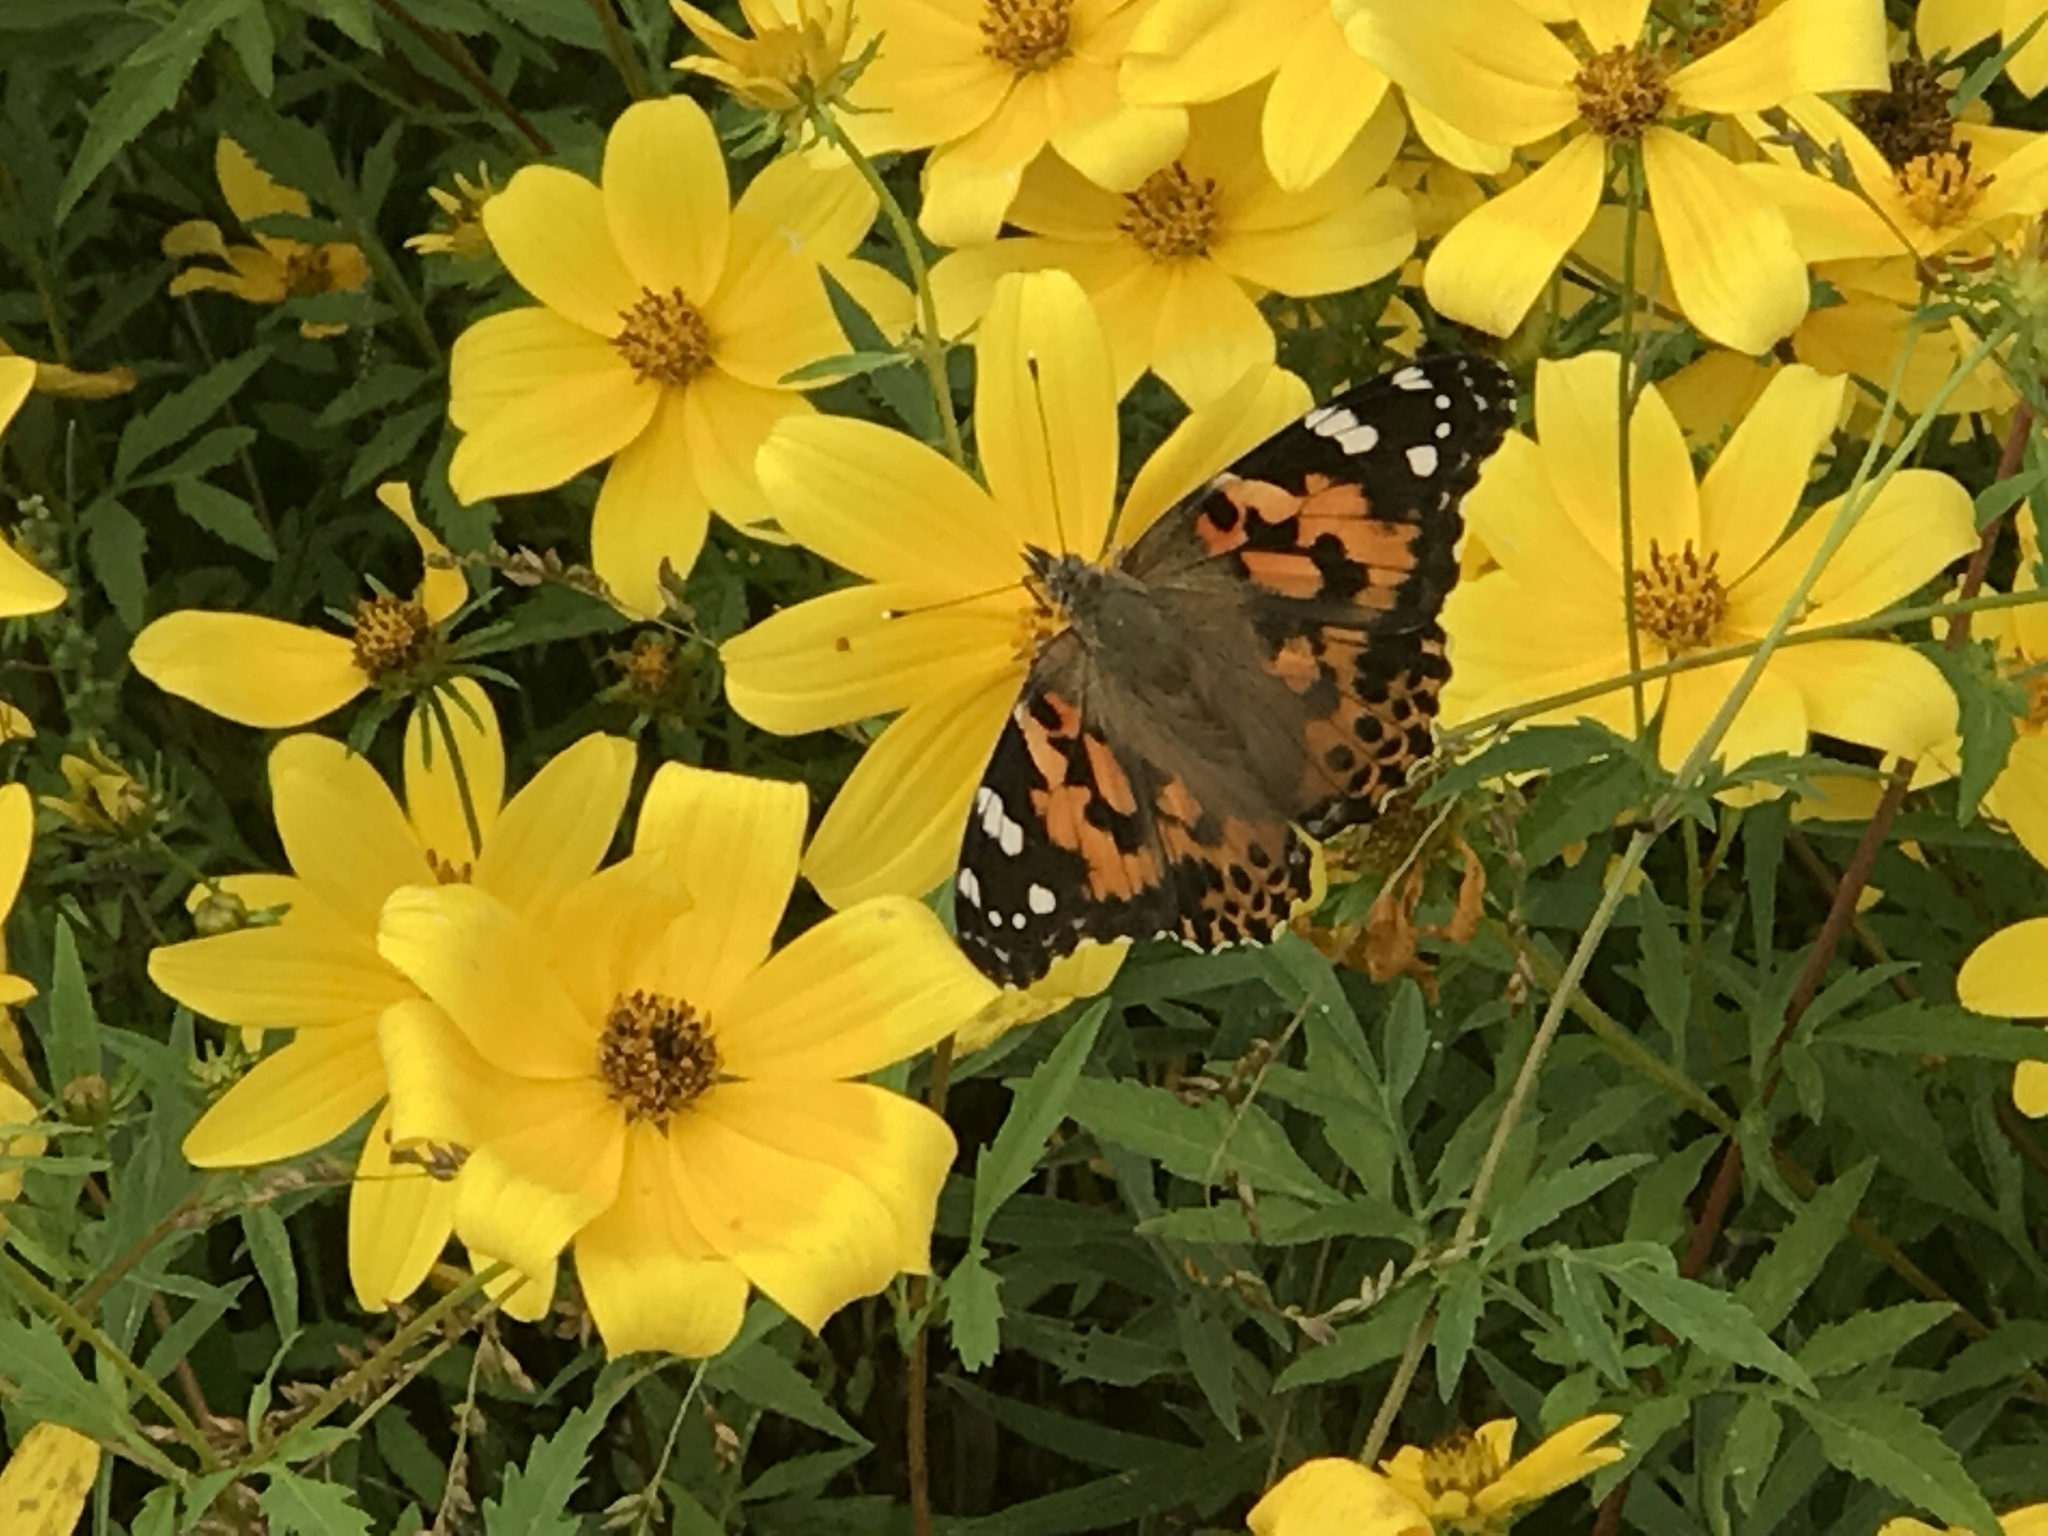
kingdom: Animalia
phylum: Arthropoda
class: Insecta
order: Lepidoptera
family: Nymphalidae
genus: Vanessa
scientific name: Vanessa cardui
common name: Painted lady
